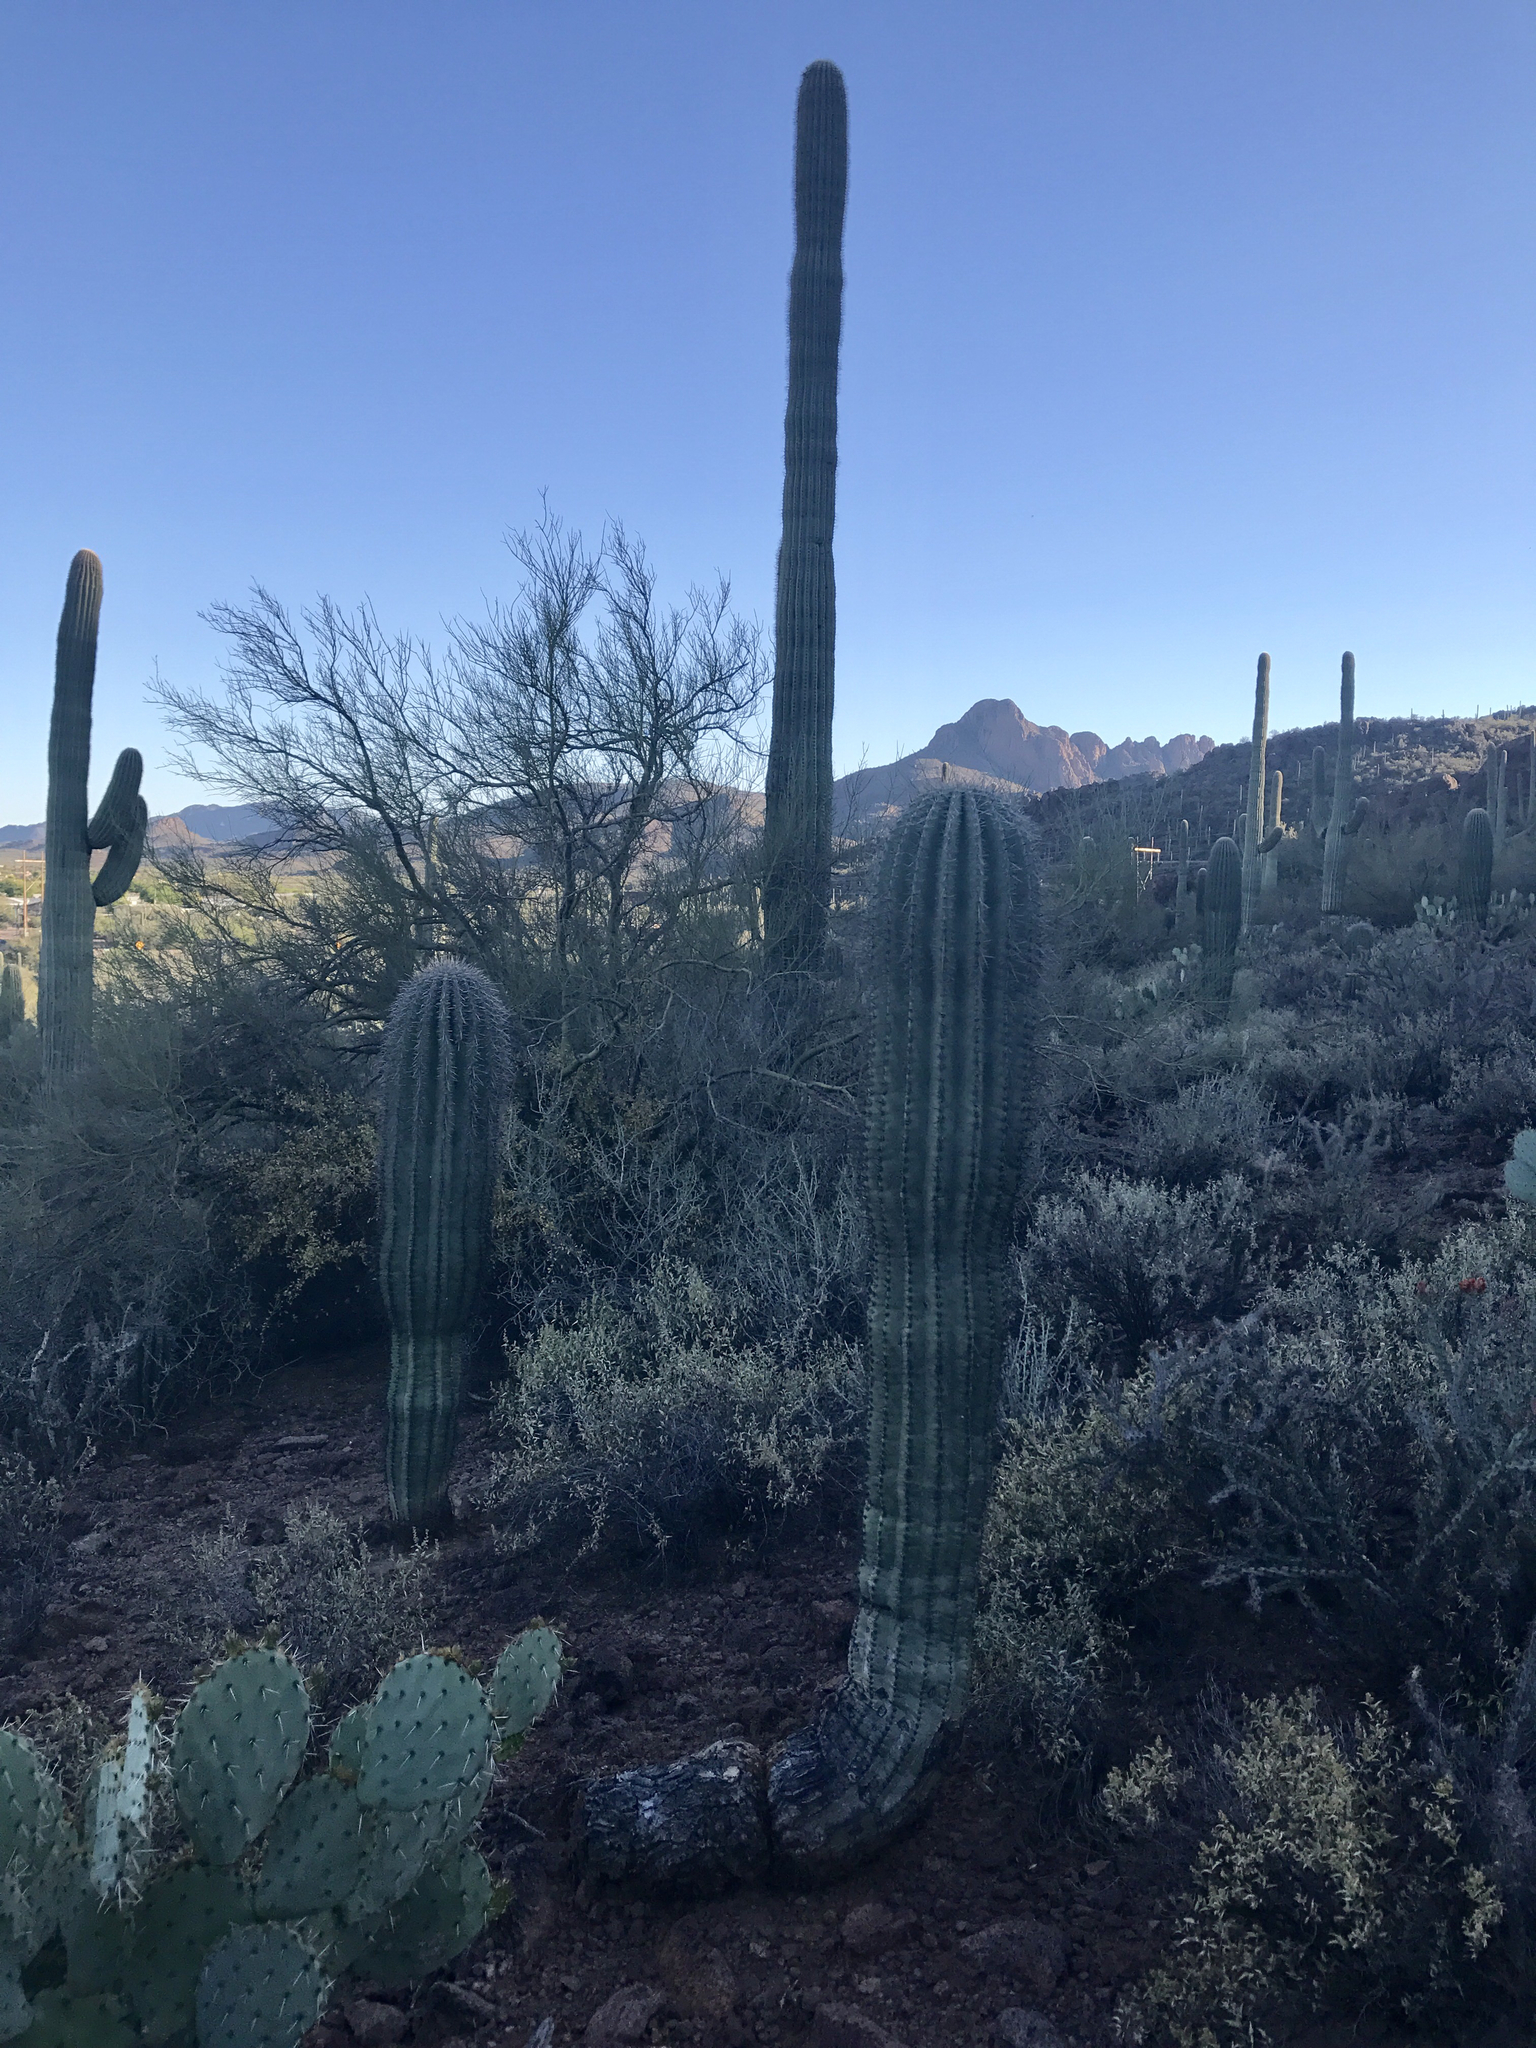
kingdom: Plantae
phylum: Tracheophyta
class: Magnoliopsida
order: Caryophyllales
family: Cactaceae
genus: Carnegiea
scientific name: Carnegiea gigantea
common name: Saguaro
